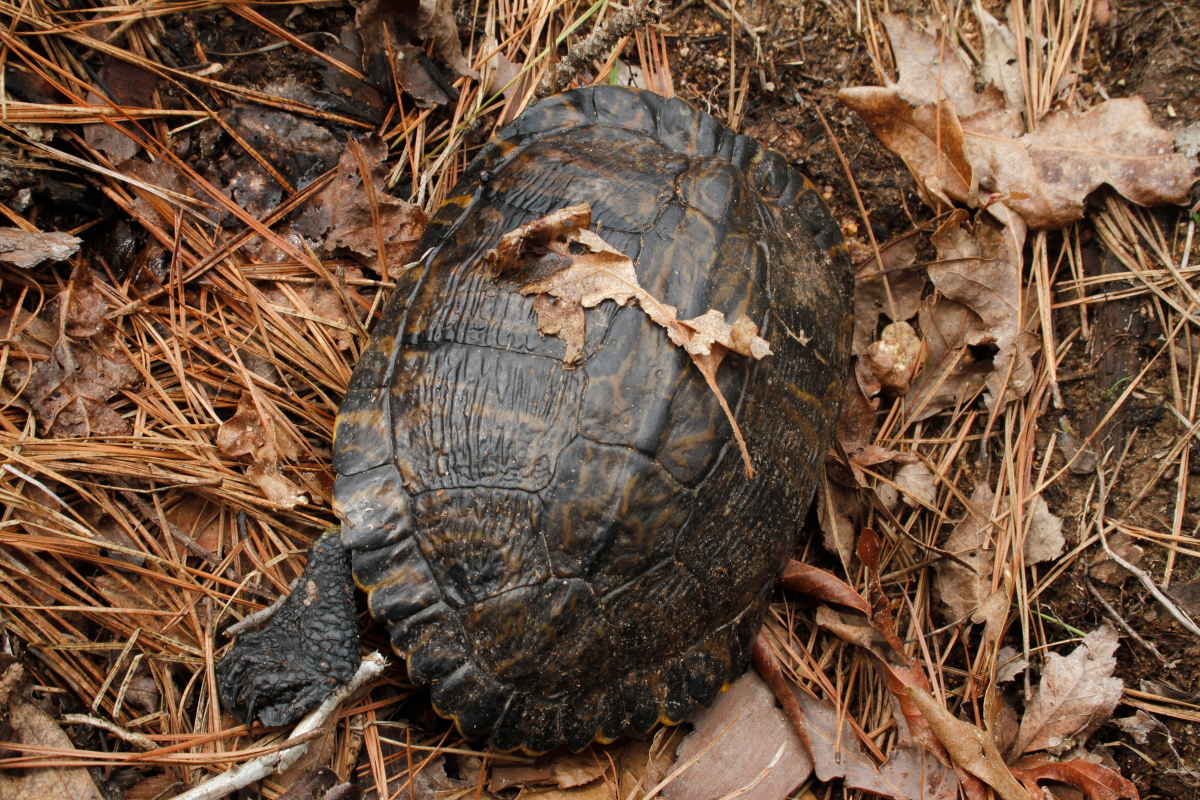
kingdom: Animalia
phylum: Chordata
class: Testudines
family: Emydidae
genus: Trachemys
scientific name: Trachemys scripta
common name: Slider
